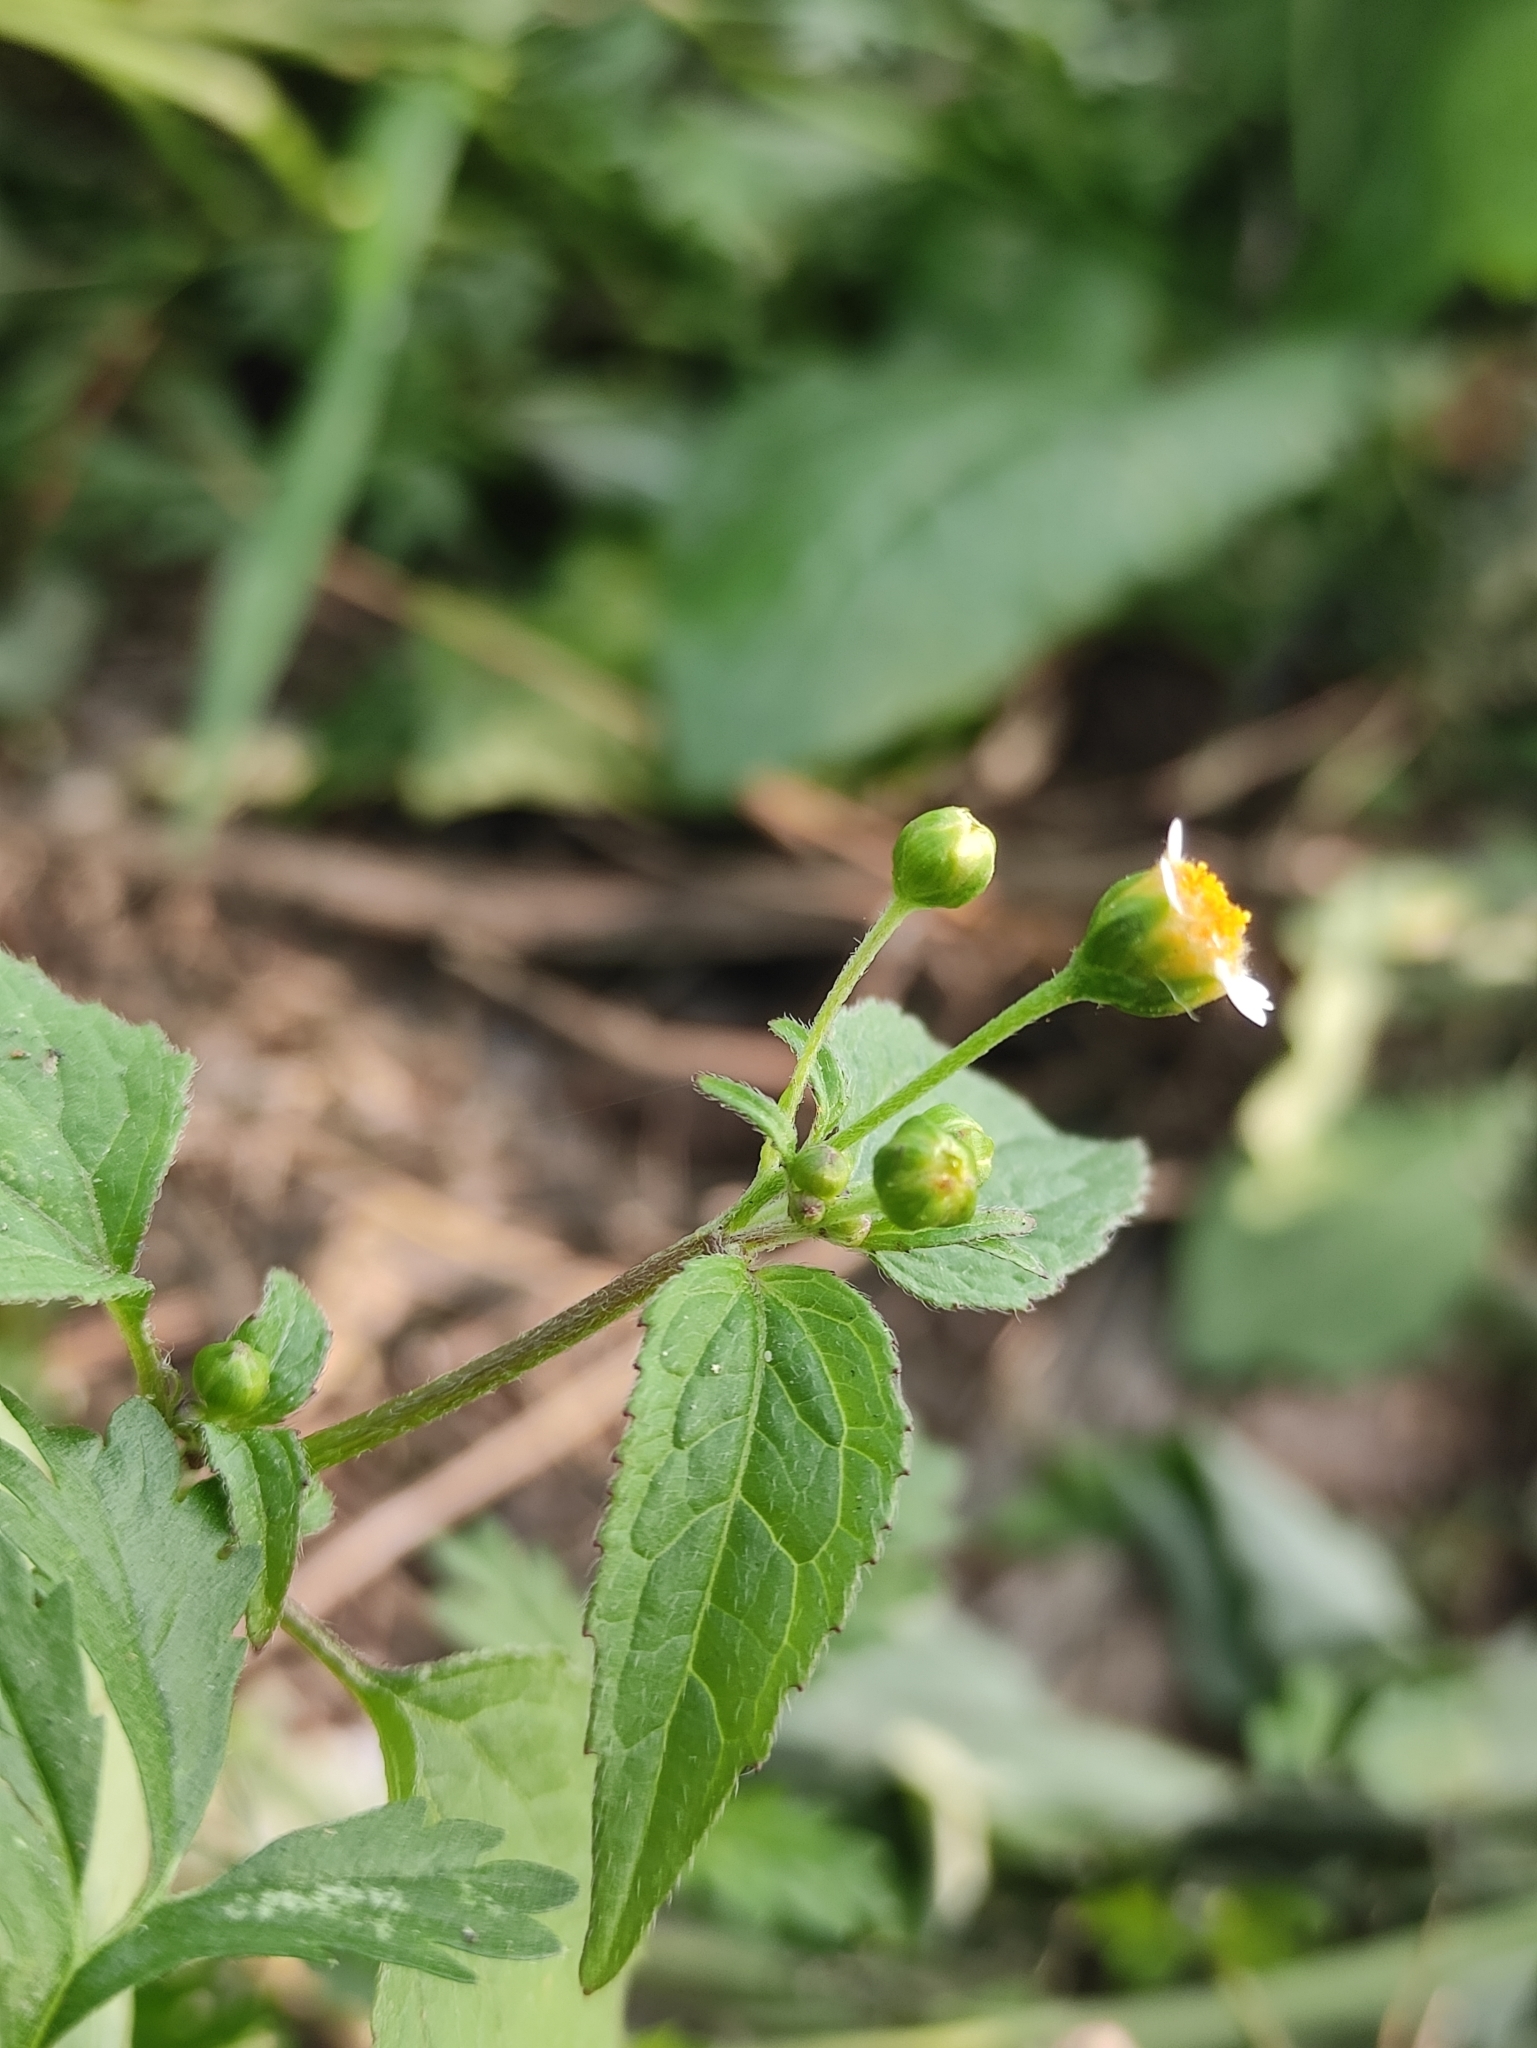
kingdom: Plantae
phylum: Tracheophyta
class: Magnoliopsida
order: Asterales
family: Asteraceae
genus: Galinsoga
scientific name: Galinsoga parviflora
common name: Gallant soldier
